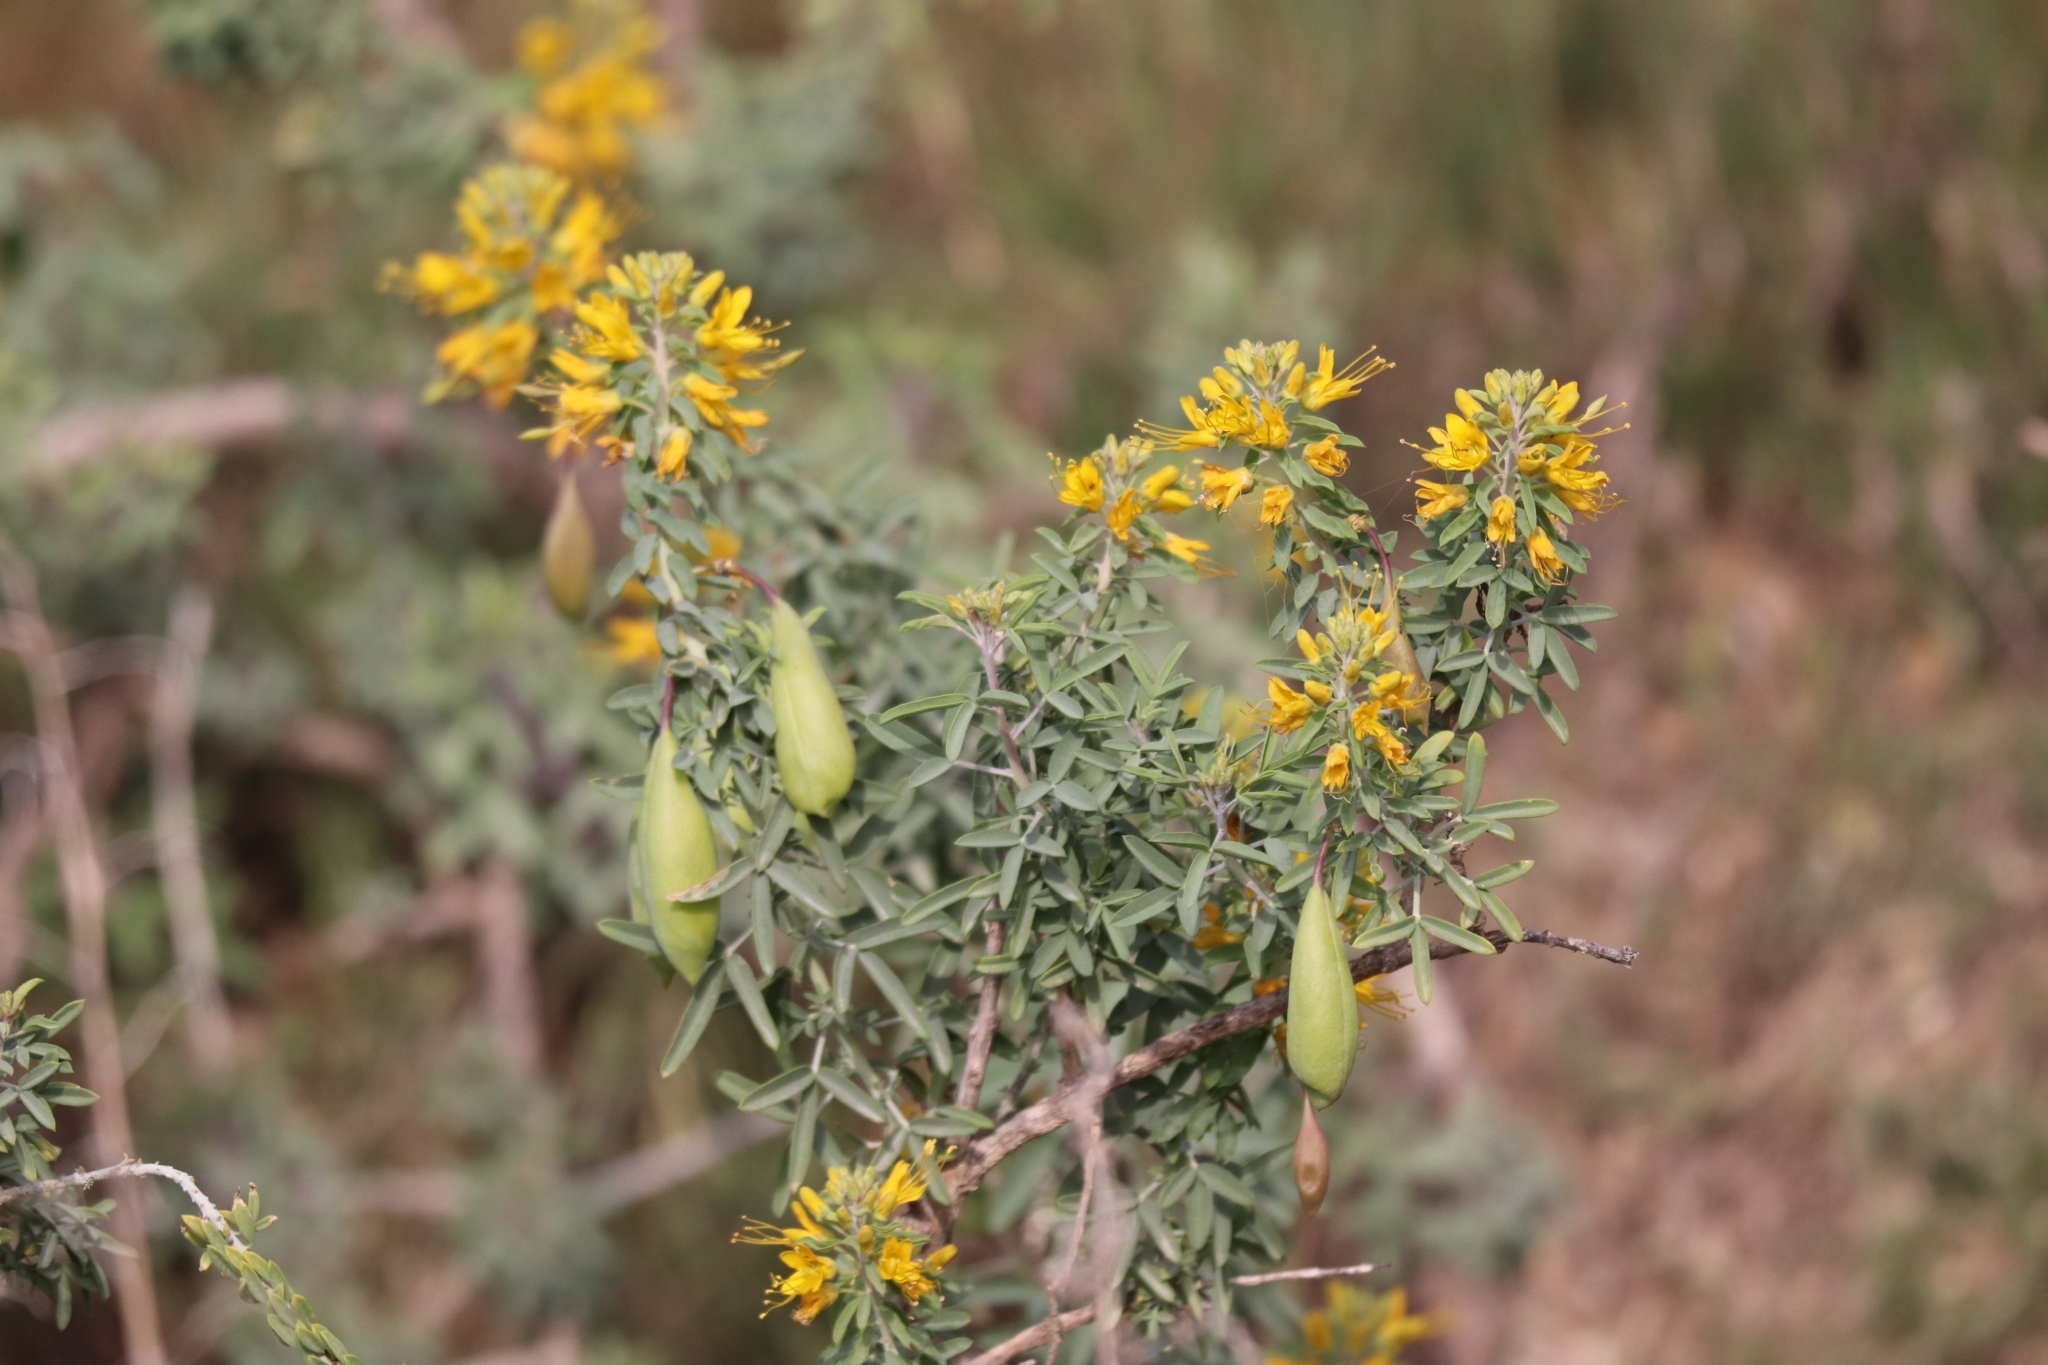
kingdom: Plantae
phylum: Tracheophyta
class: Magnoliopsida
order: Brassicales
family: Cleomaceae
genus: Cleomella
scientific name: Cleomella arborea
